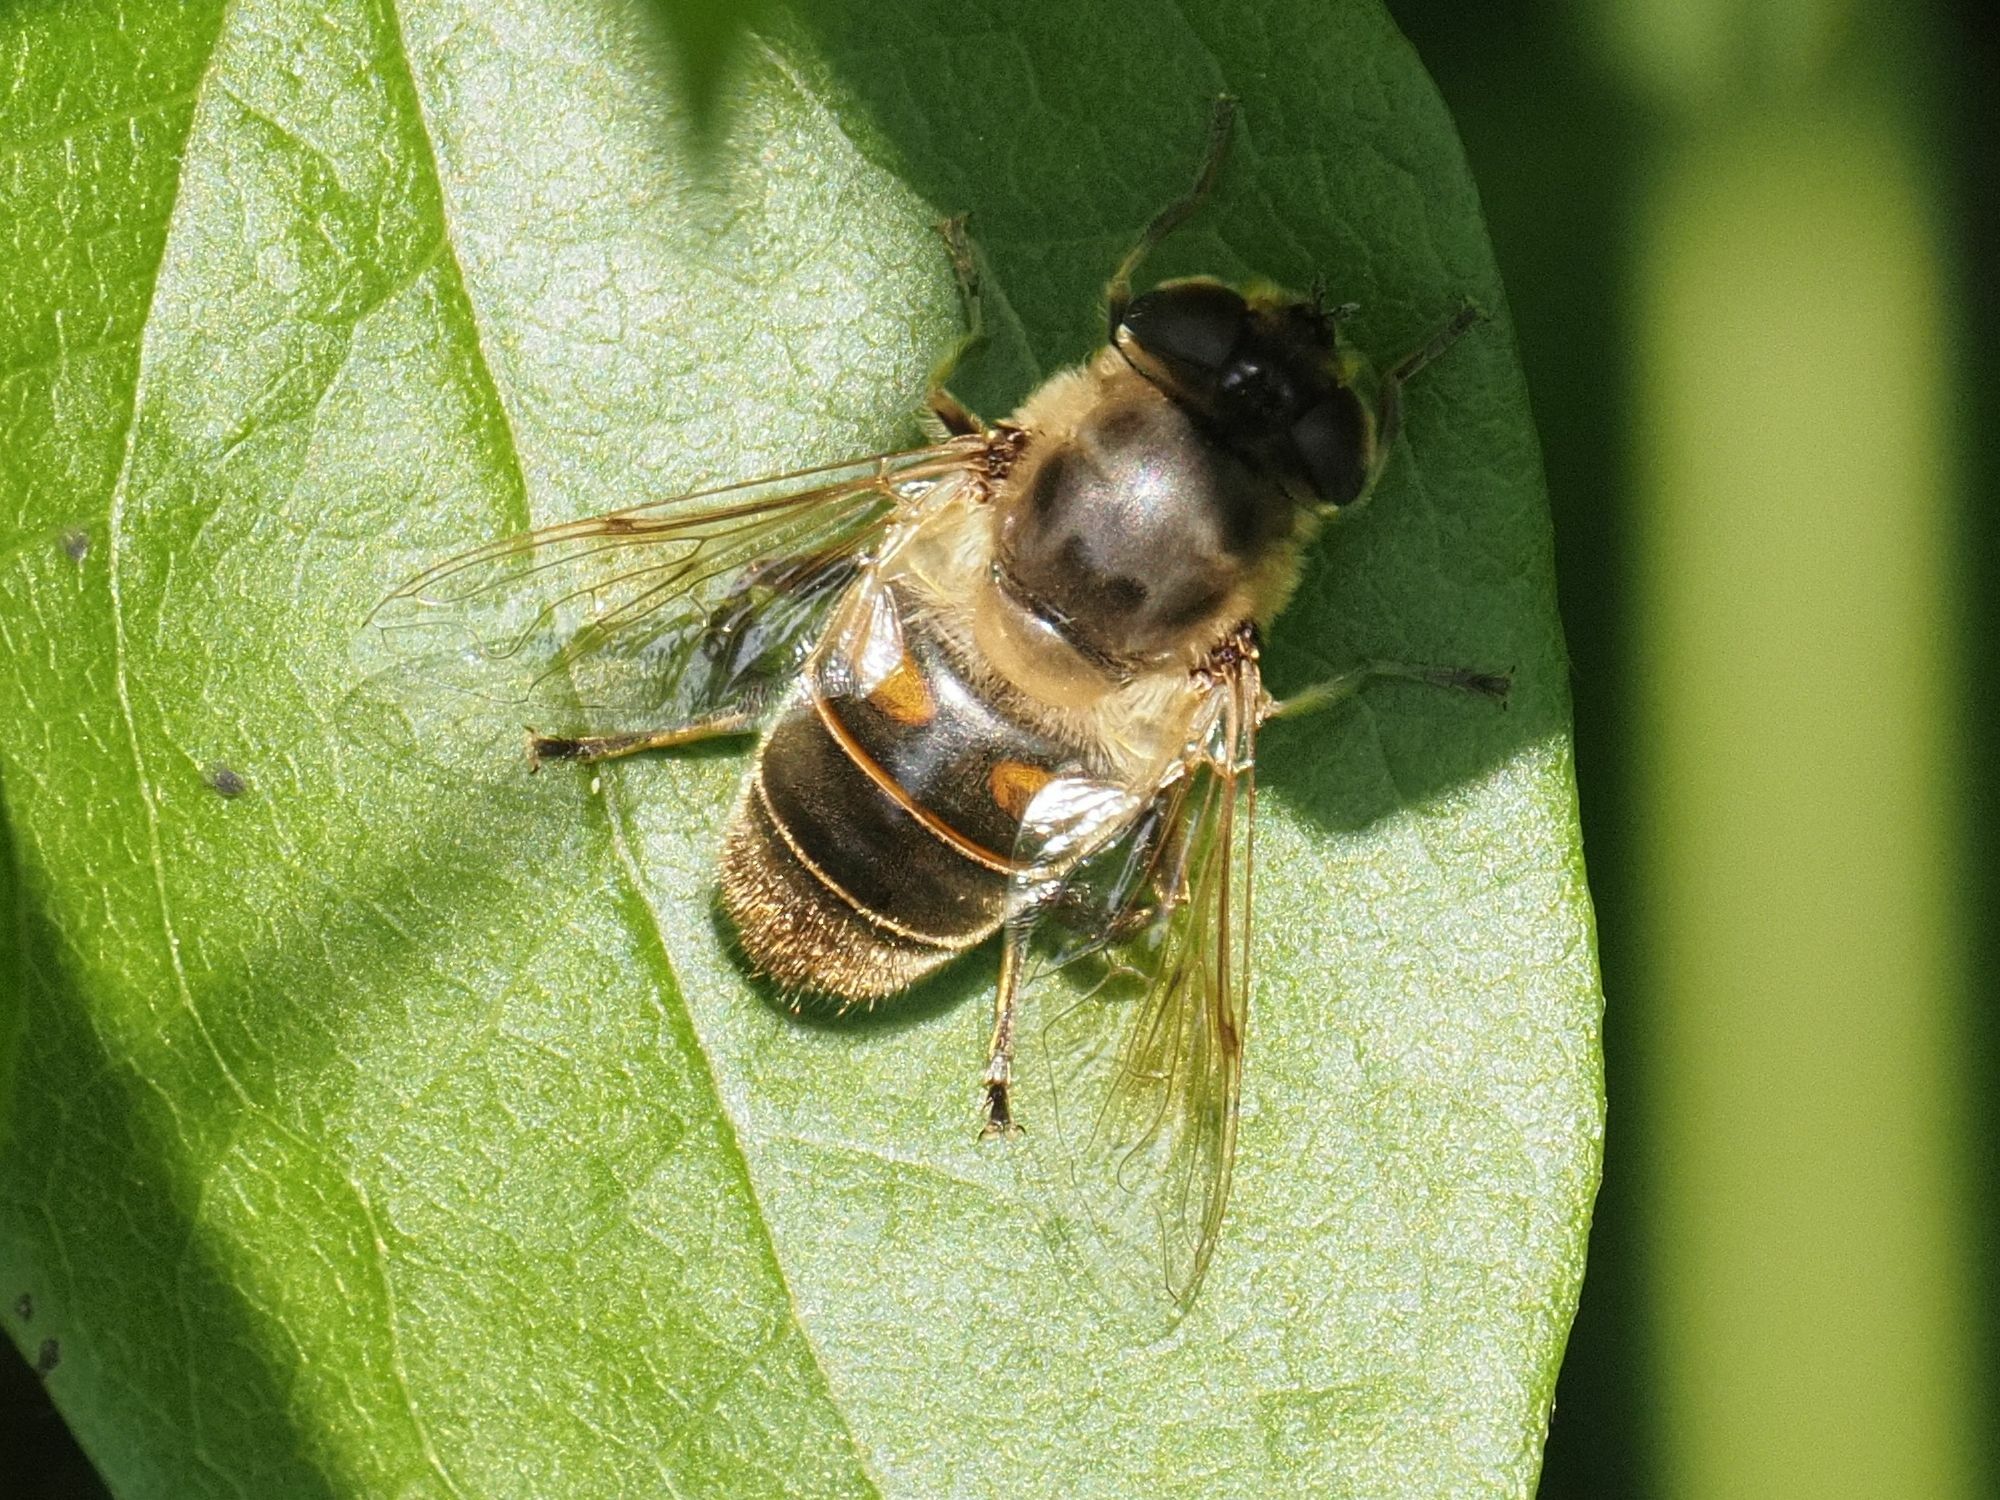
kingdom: Animalia
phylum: Arthropoda
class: Insecta
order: Diptera
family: Syrphidae
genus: Eristalis
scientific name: Eristalis tenax
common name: Drone fly
